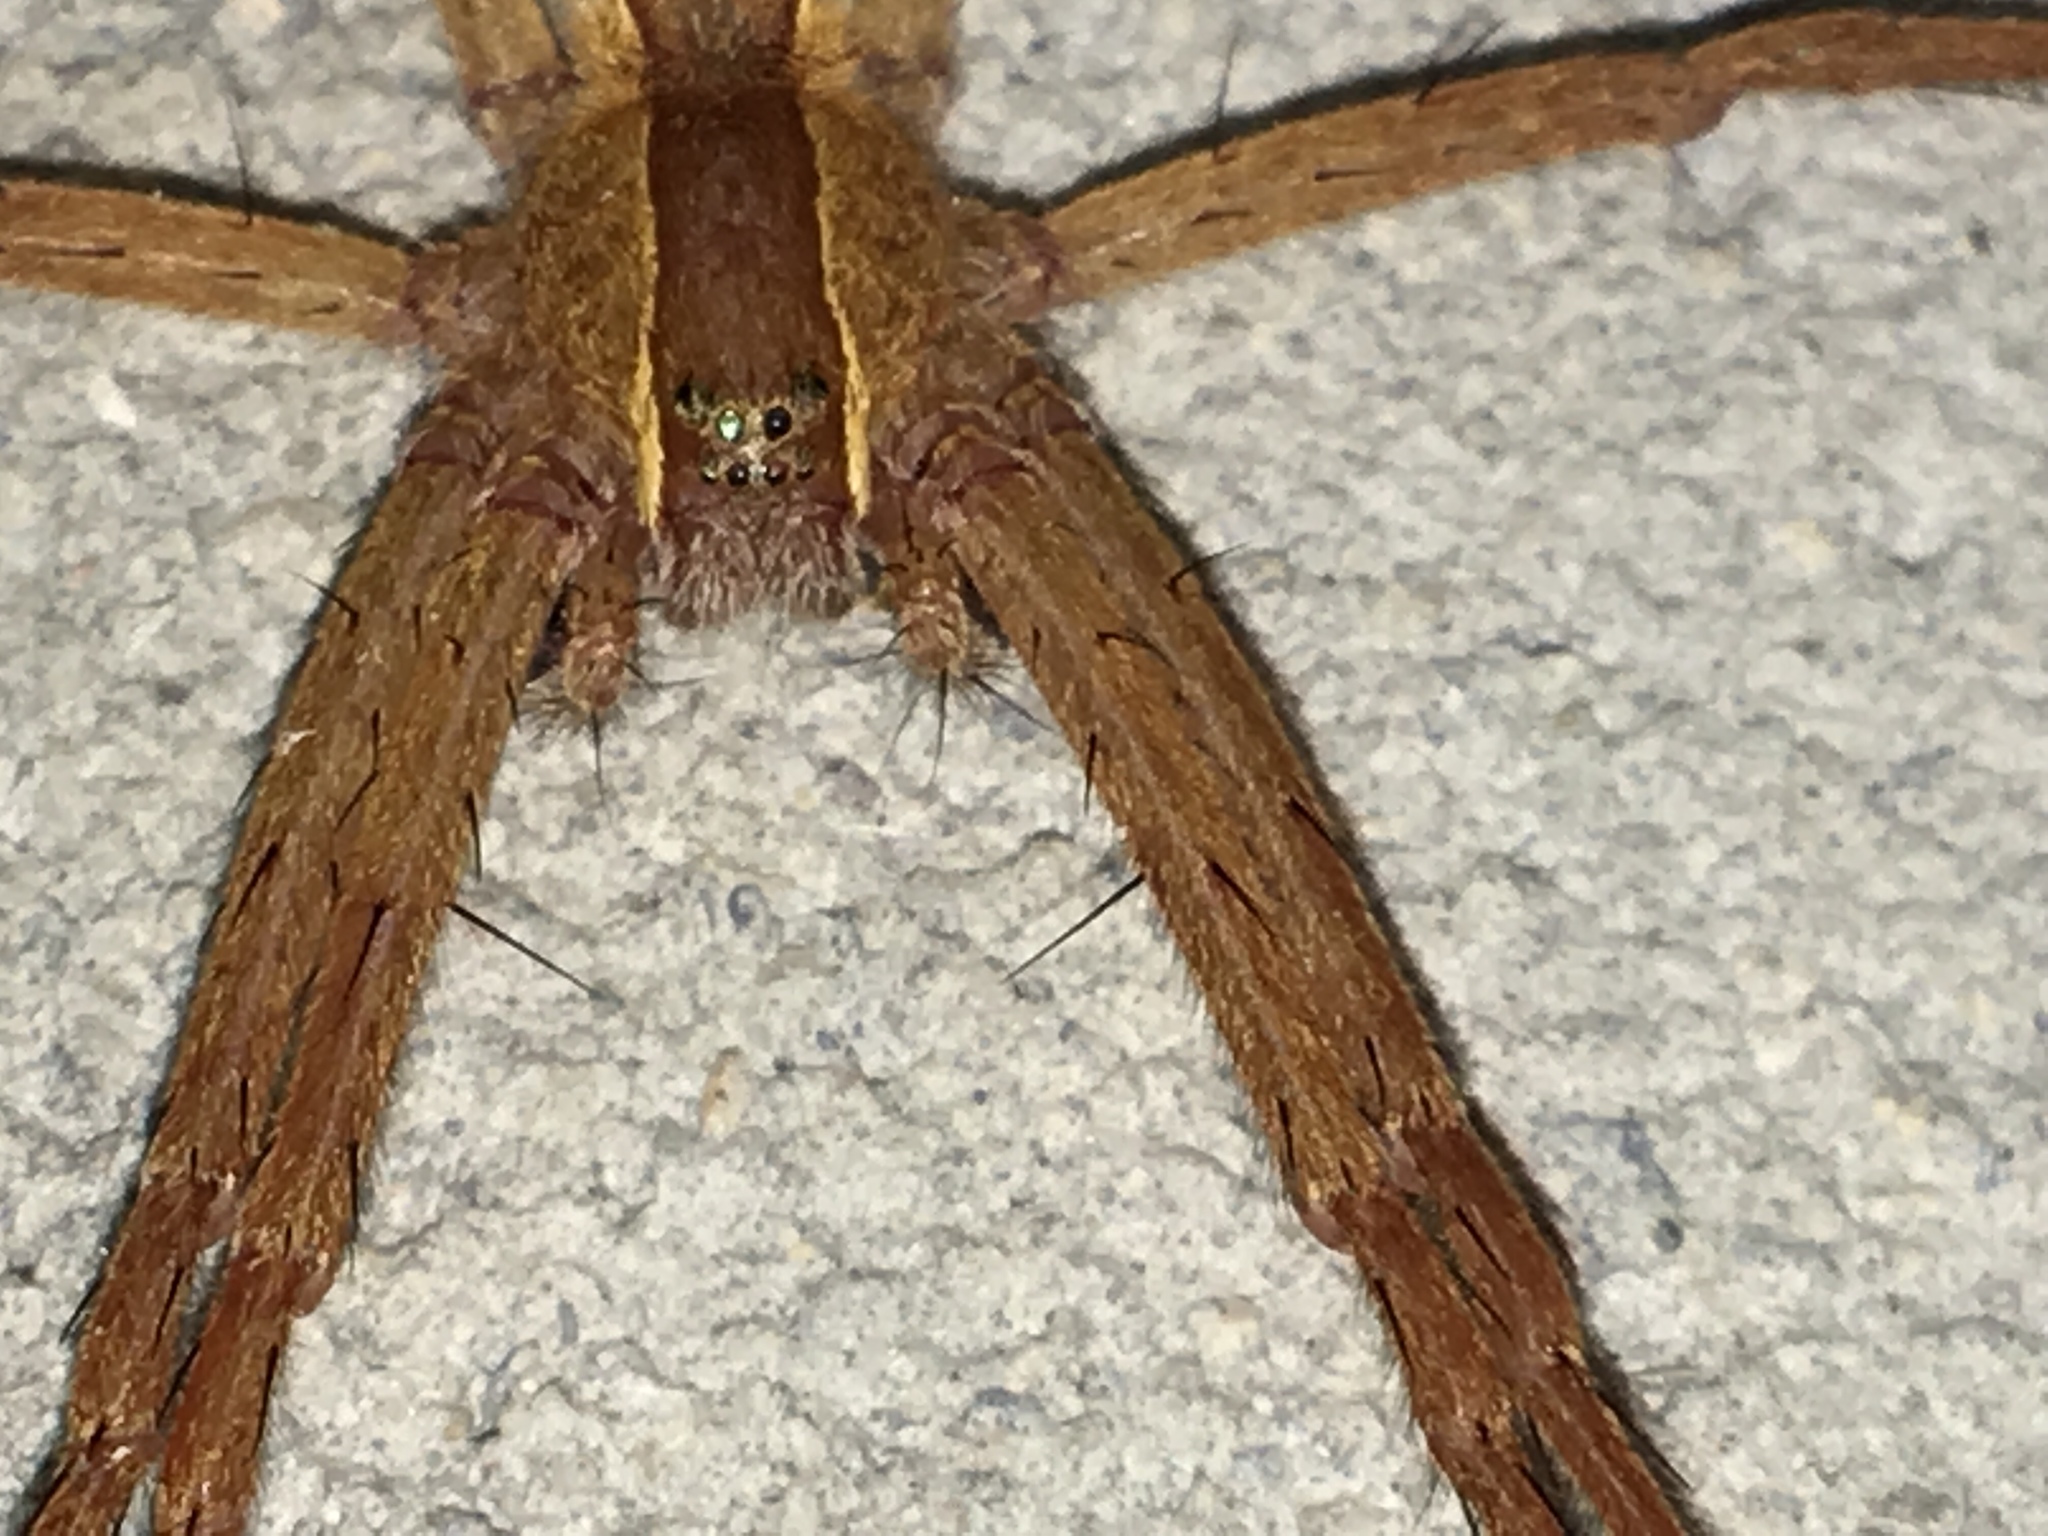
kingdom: Animalia
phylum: Arthropoda
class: Arachnida
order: Araneae
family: Pisauridae
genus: Pisaurina
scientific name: Pisaurina mira
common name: American nursery web spider
